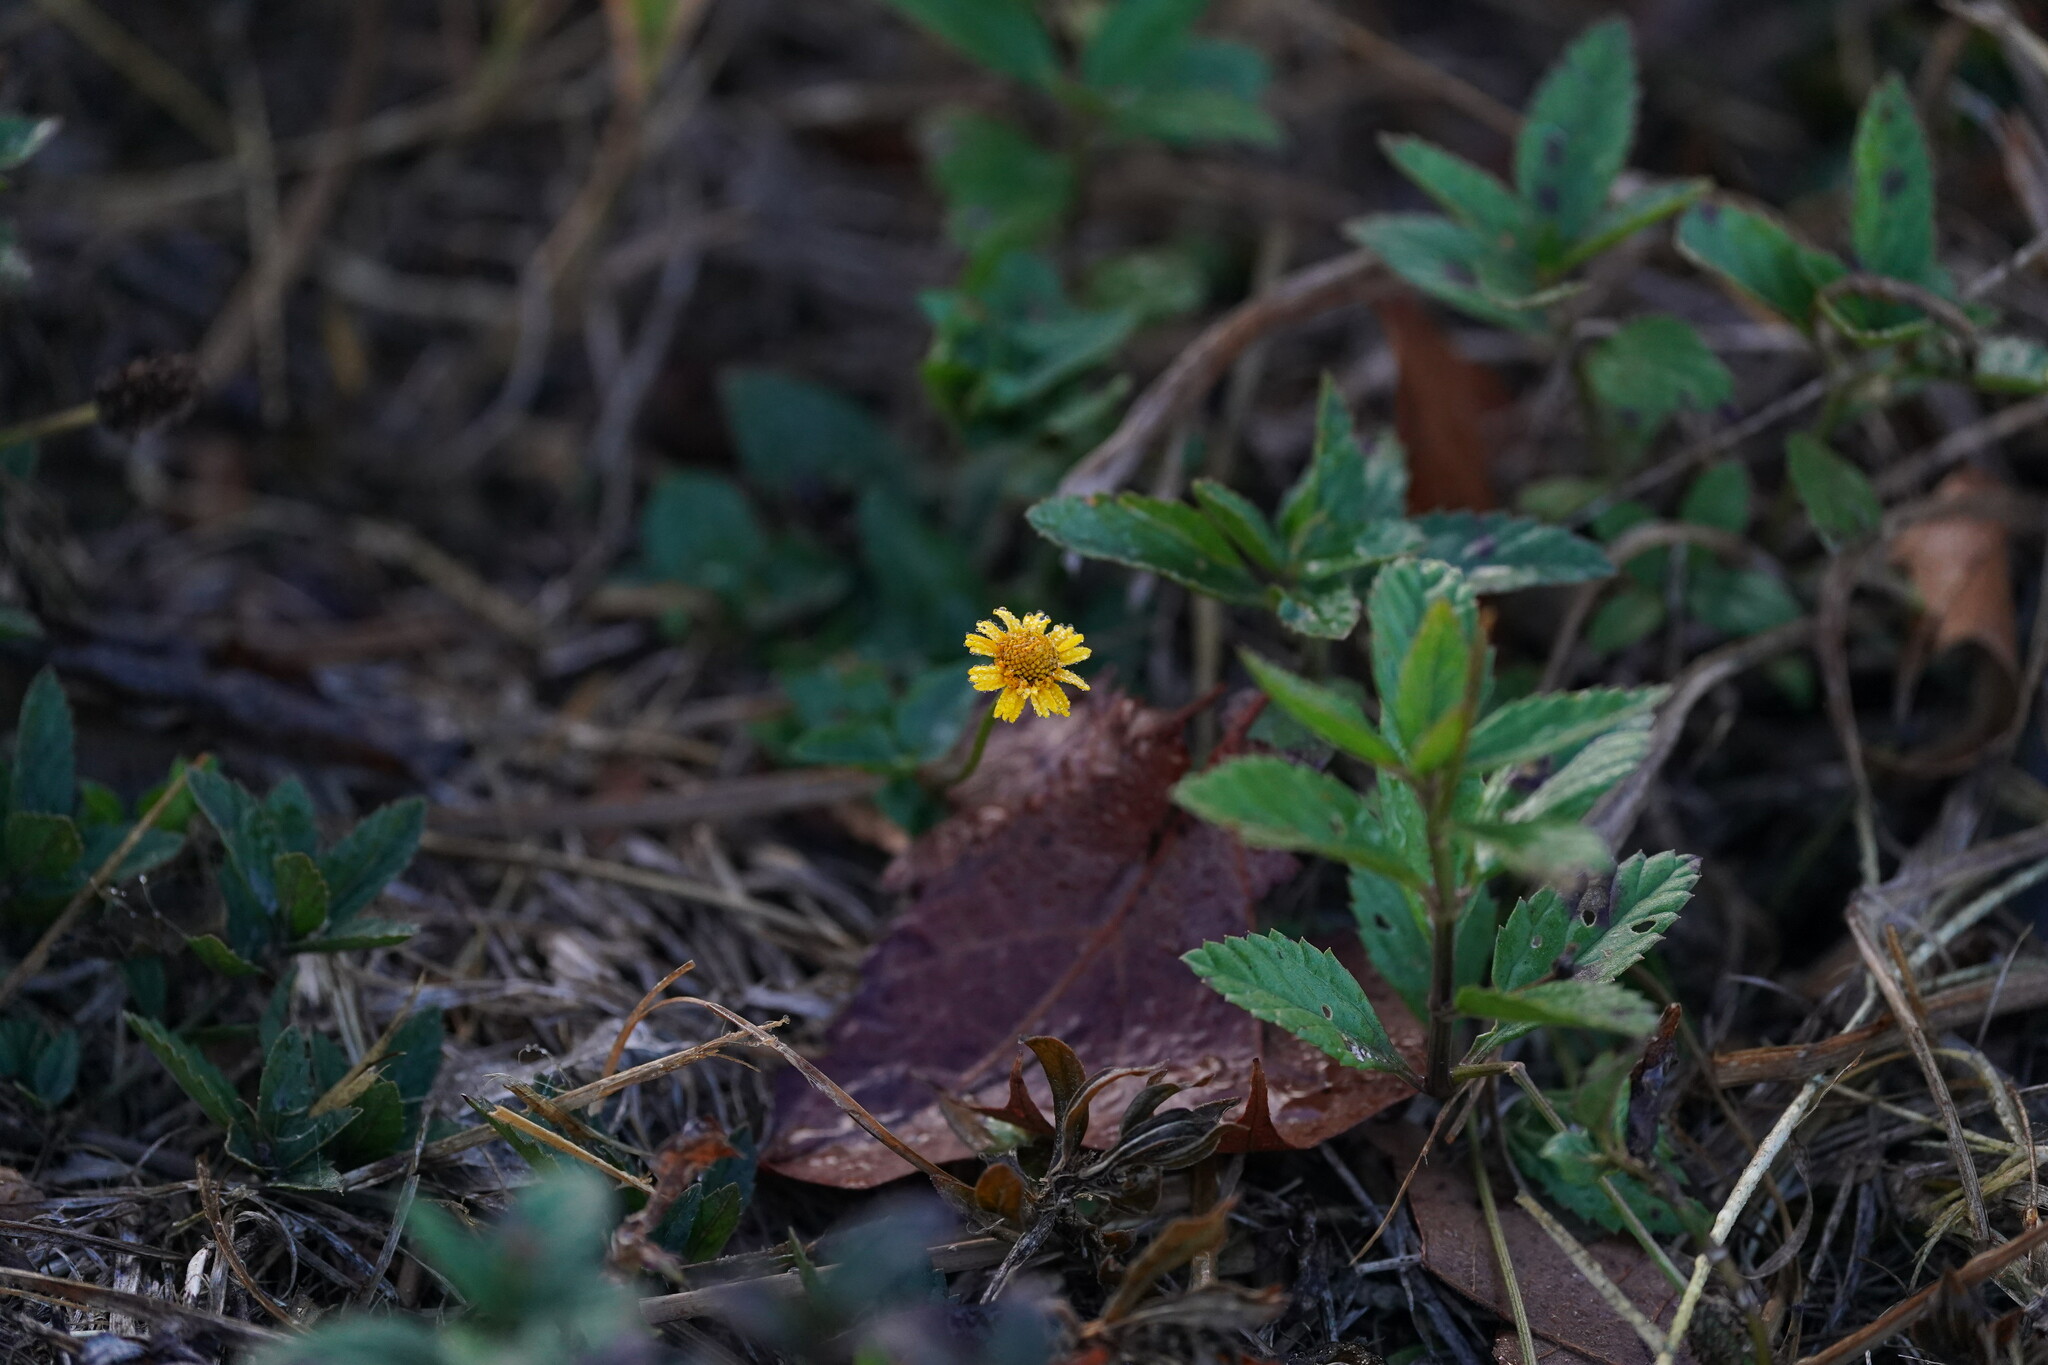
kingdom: Plantae
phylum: Tracheophyta
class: Magnoliopsida
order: Asterales
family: Asteraceae
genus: Acmella
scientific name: Acmella repens
